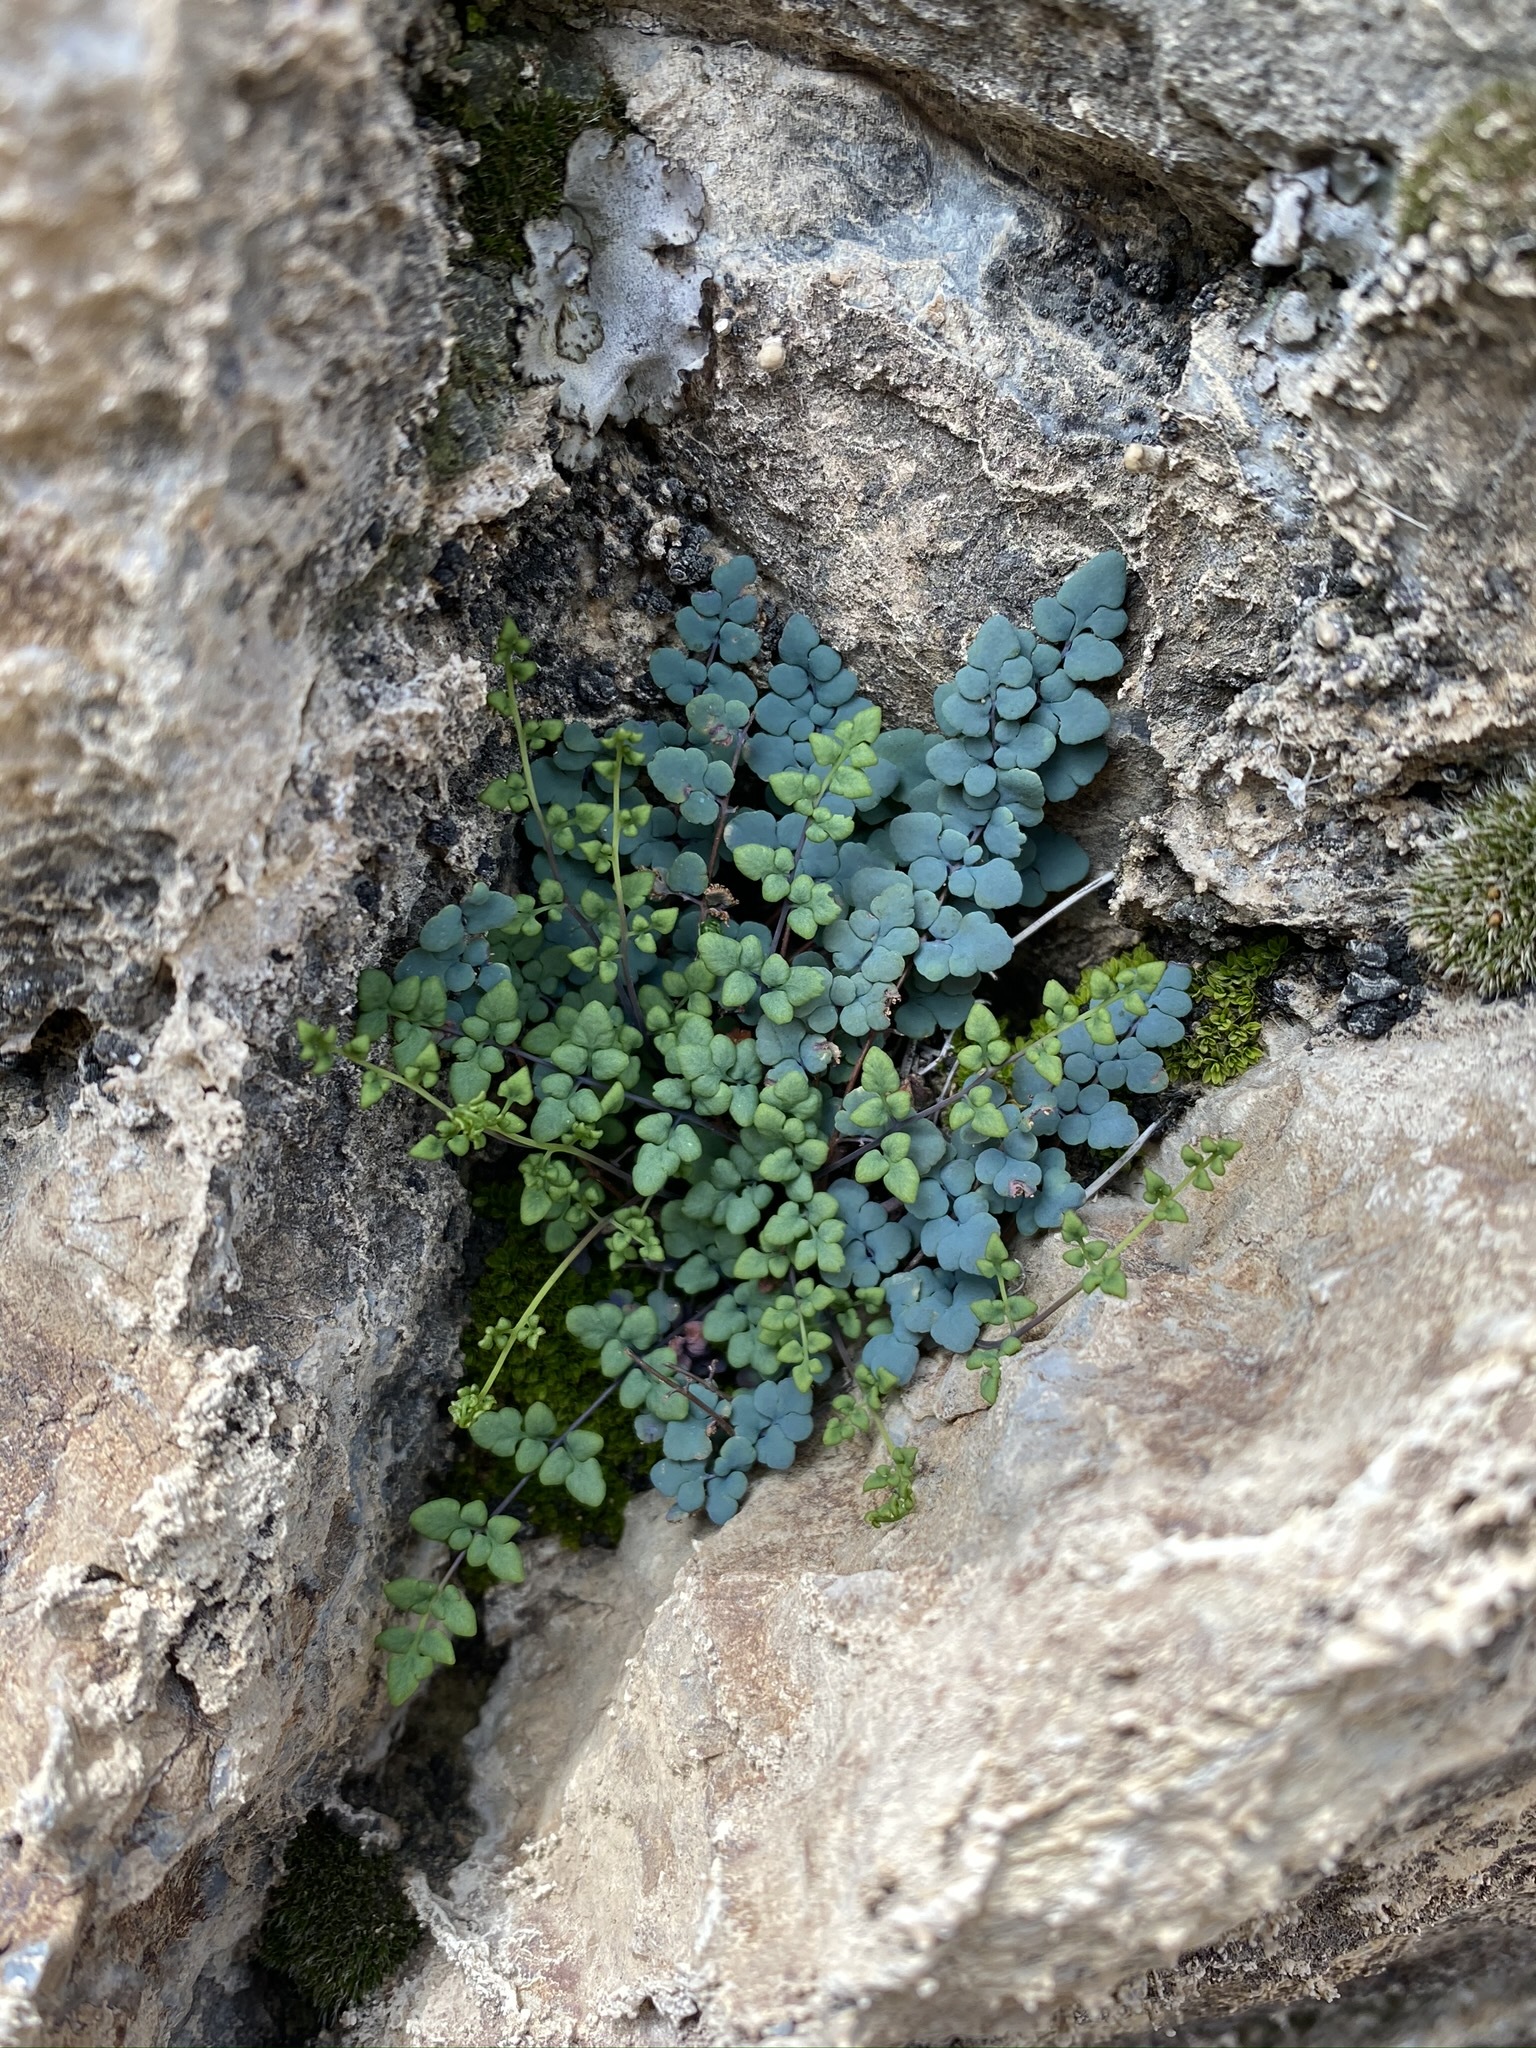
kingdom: Plantae
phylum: Tracheophyta
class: Polypodiopsida
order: Polypodiales
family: Pteridaceae
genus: Argyrochosma
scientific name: Argyrochosma jonesii
